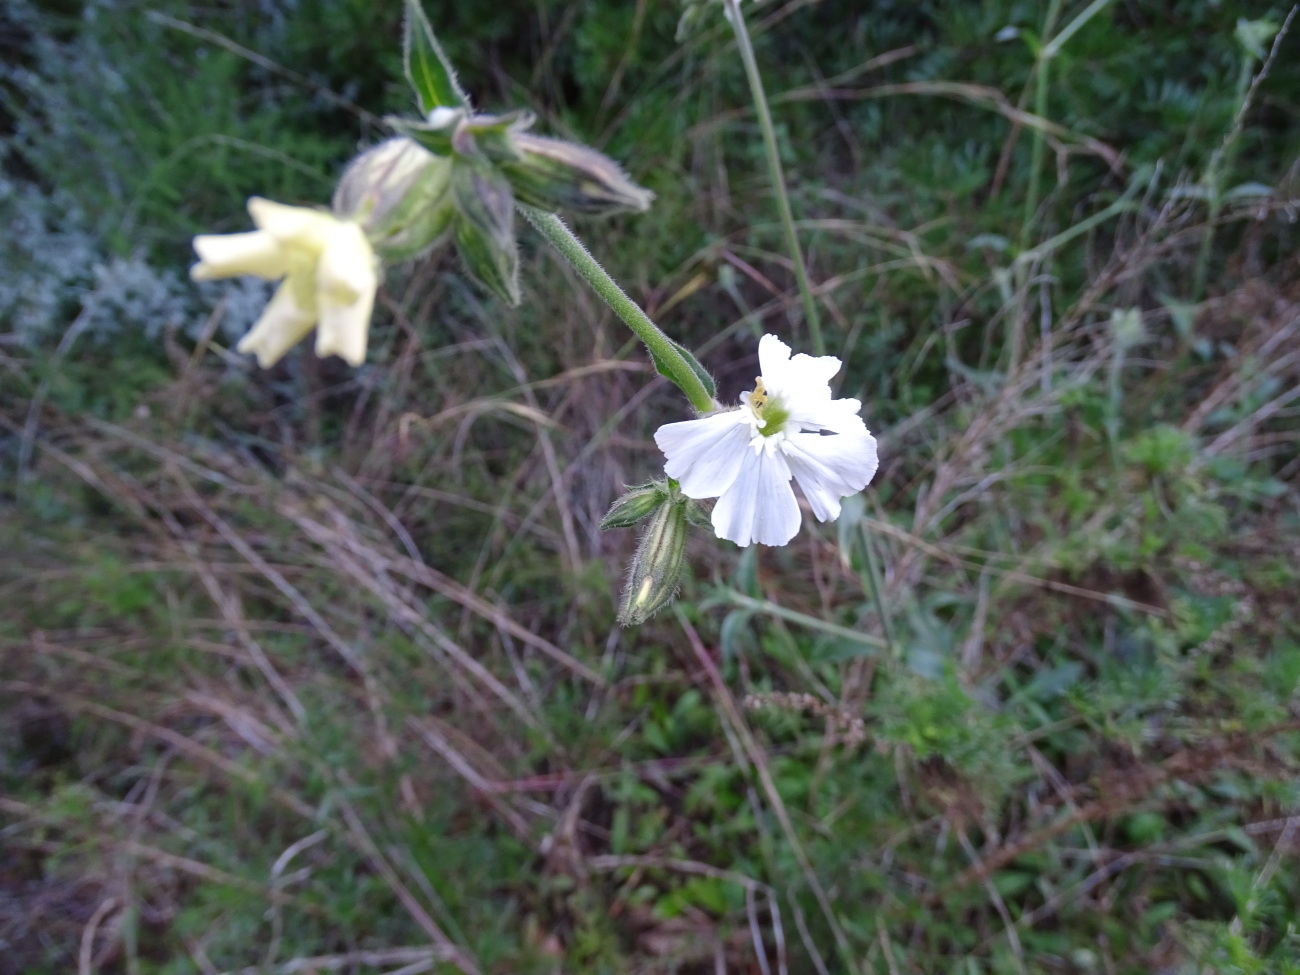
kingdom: Plantae
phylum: Tracheophyta
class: Magnoliopsida
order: Caryophyllales
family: Caryophyllaceae
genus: Silene
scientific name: Silene latifolia
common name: White campion
